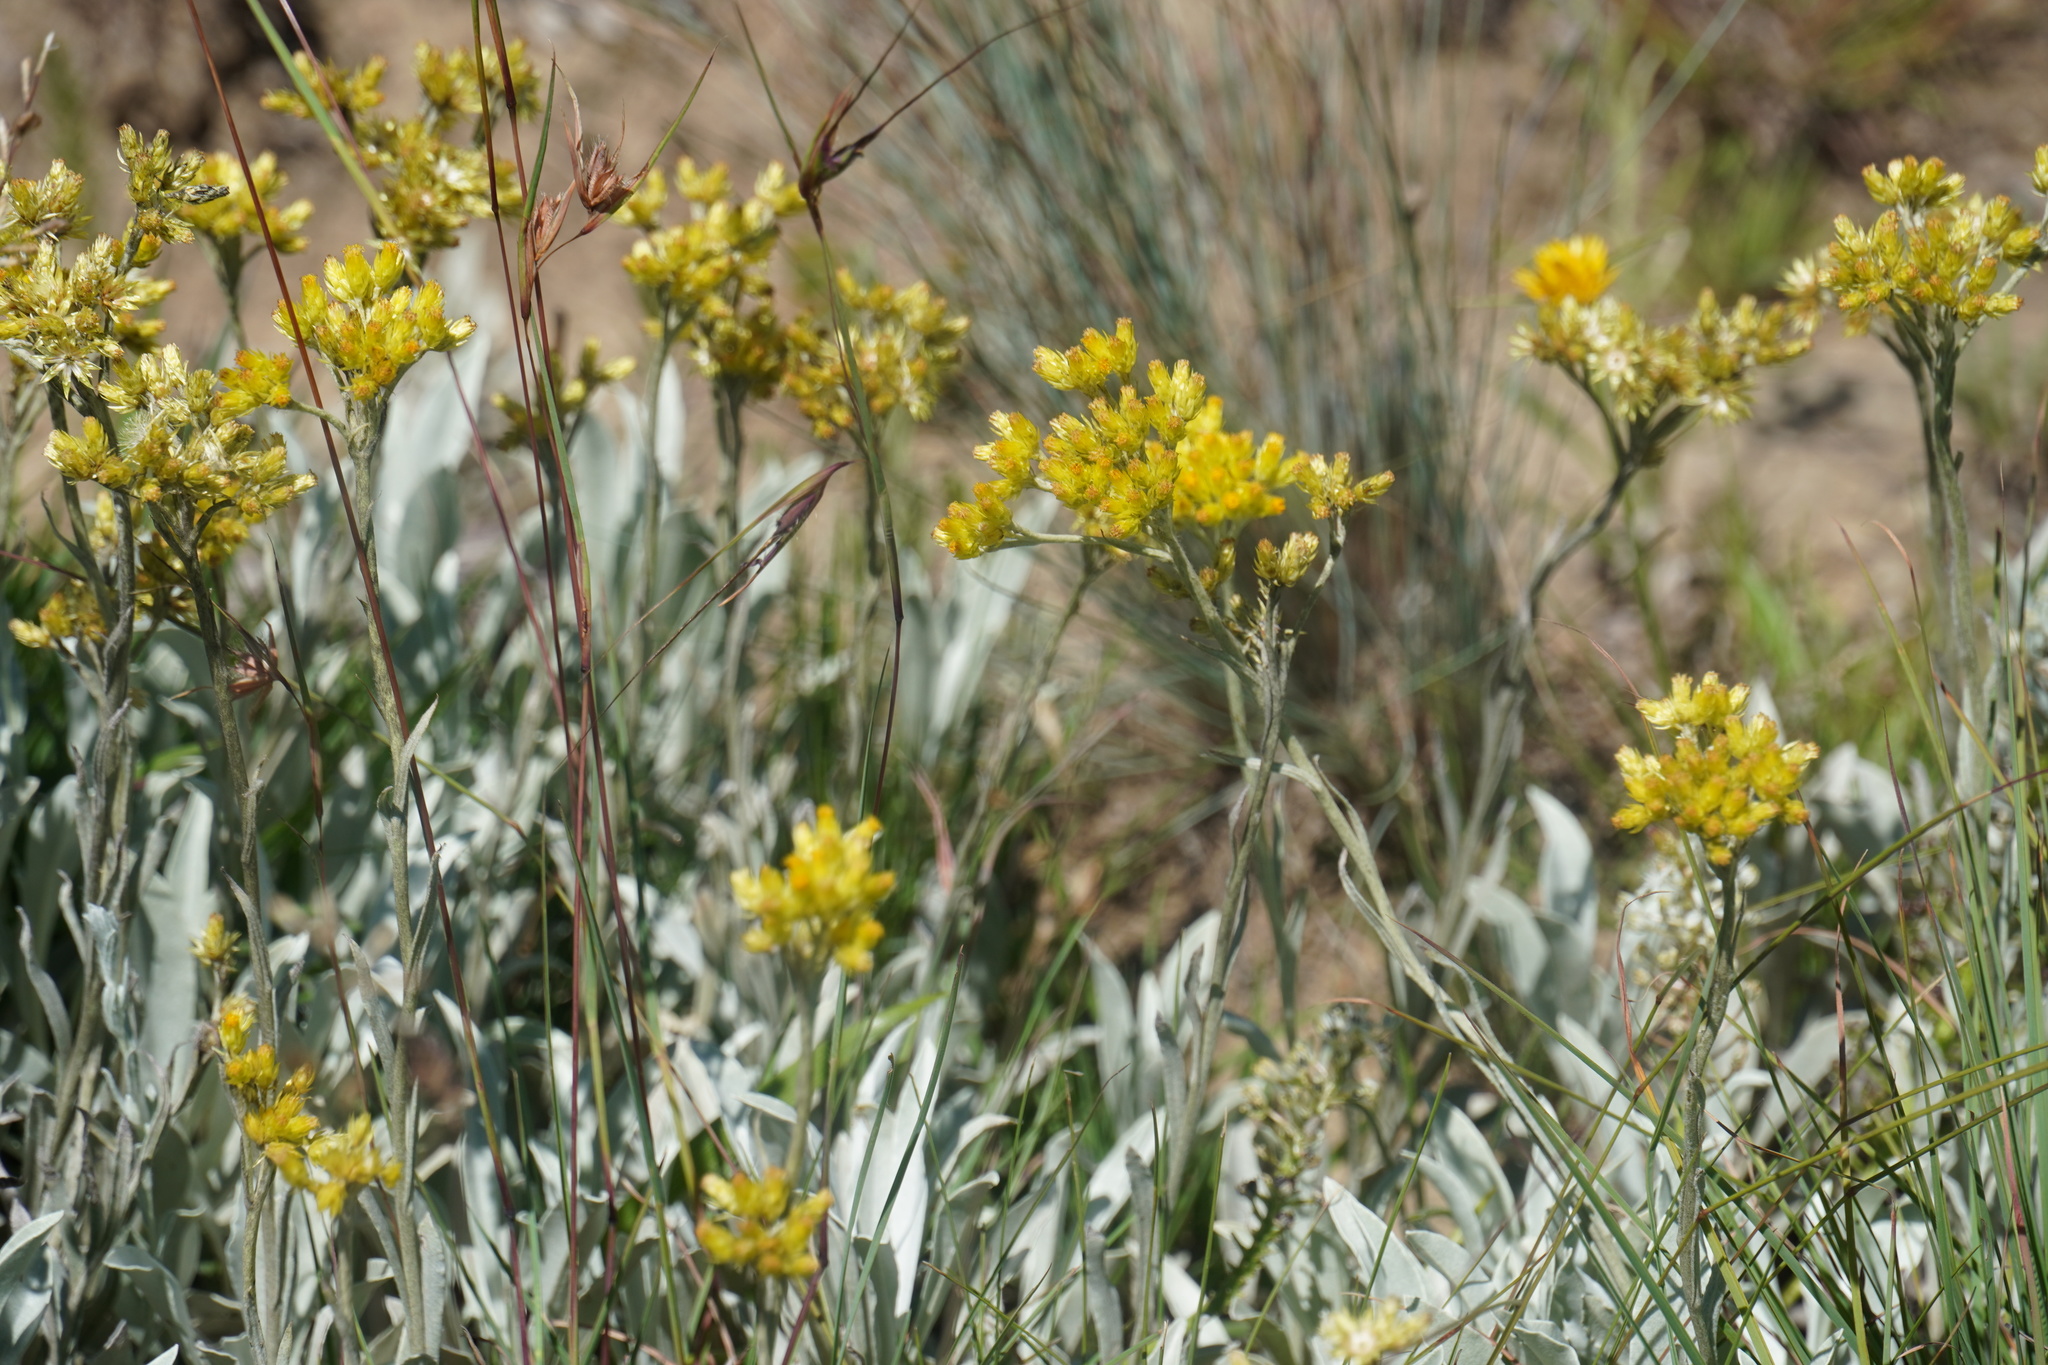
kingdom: Plantae
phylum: Tracheophyta
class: Magnoliopsida
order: Asterales
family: Asteraceae
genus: Helichrysum
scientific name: Helichrysum oreophilum
